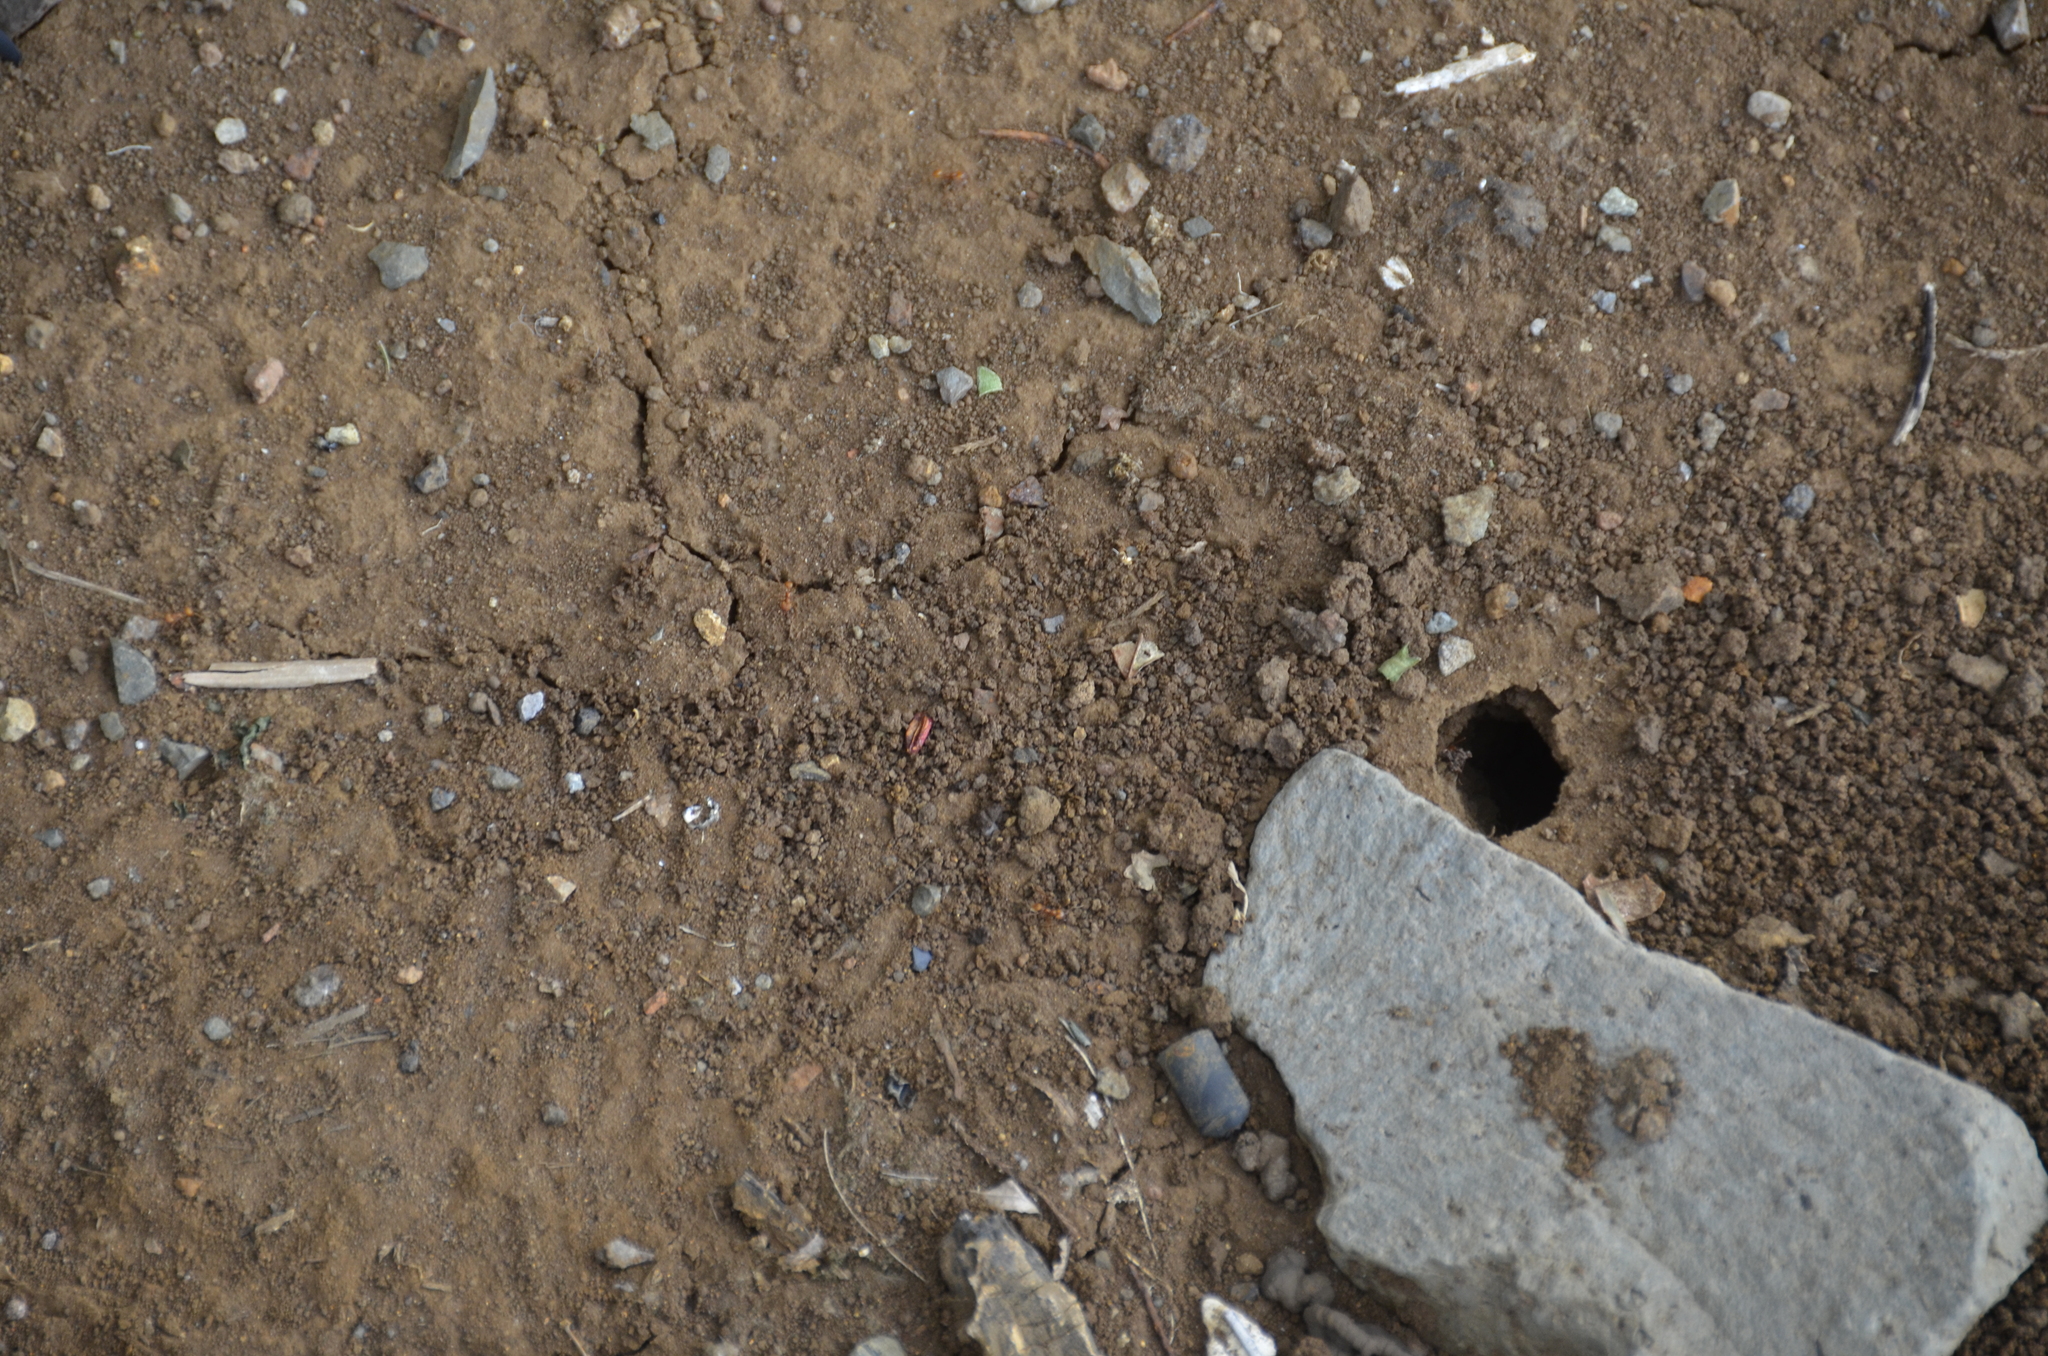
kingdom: Animalia
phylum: Arthropoda
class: Insecta
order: Hymenoptera
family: Formicidae
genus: Atta
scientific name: Atta cephalotes
